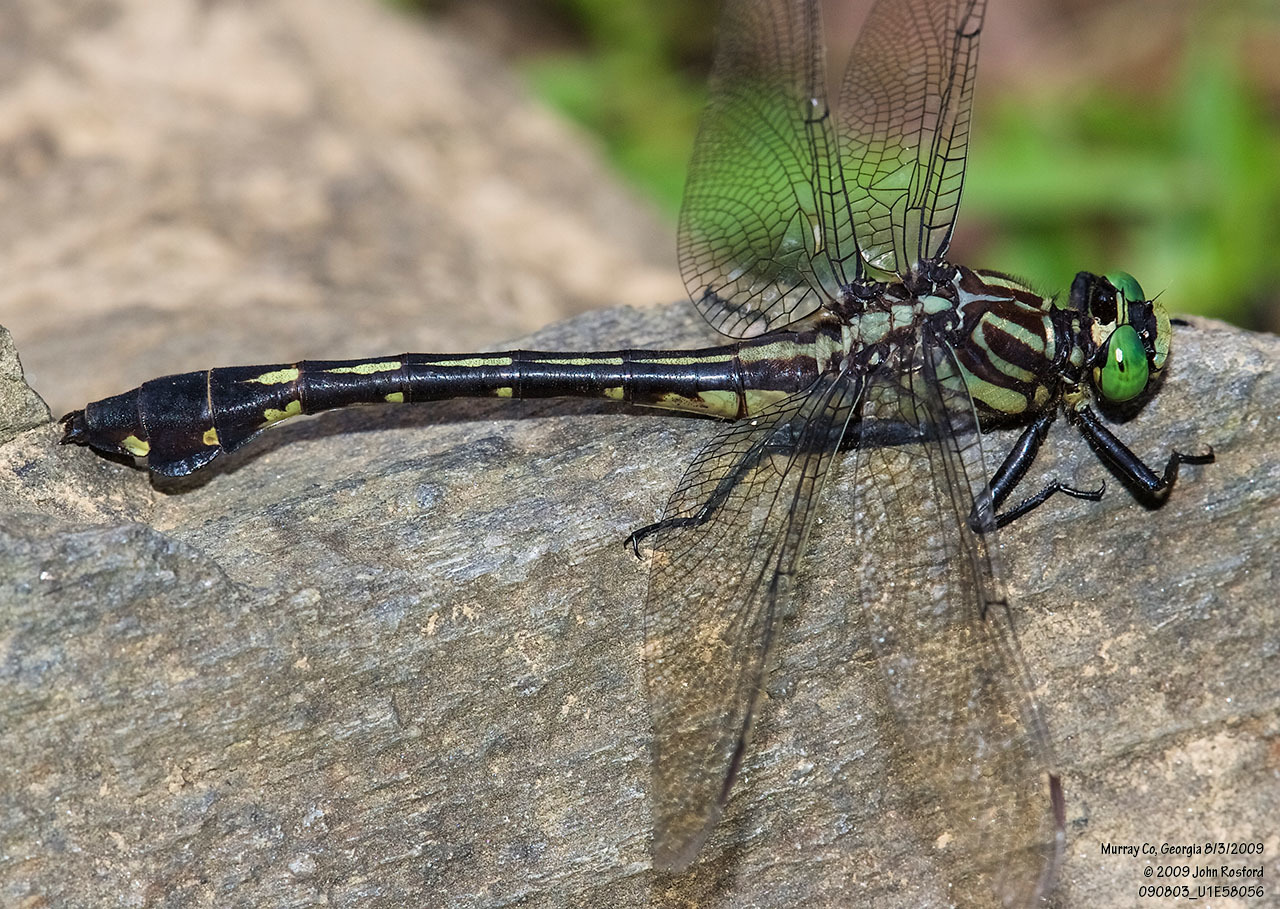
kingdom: Animalia
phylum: Arthropoda
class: Insecta
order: Odonata
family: Gomphidae
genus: Gomphurus
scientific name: Gomphurus dilatatus
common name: Blackwater clubtail
